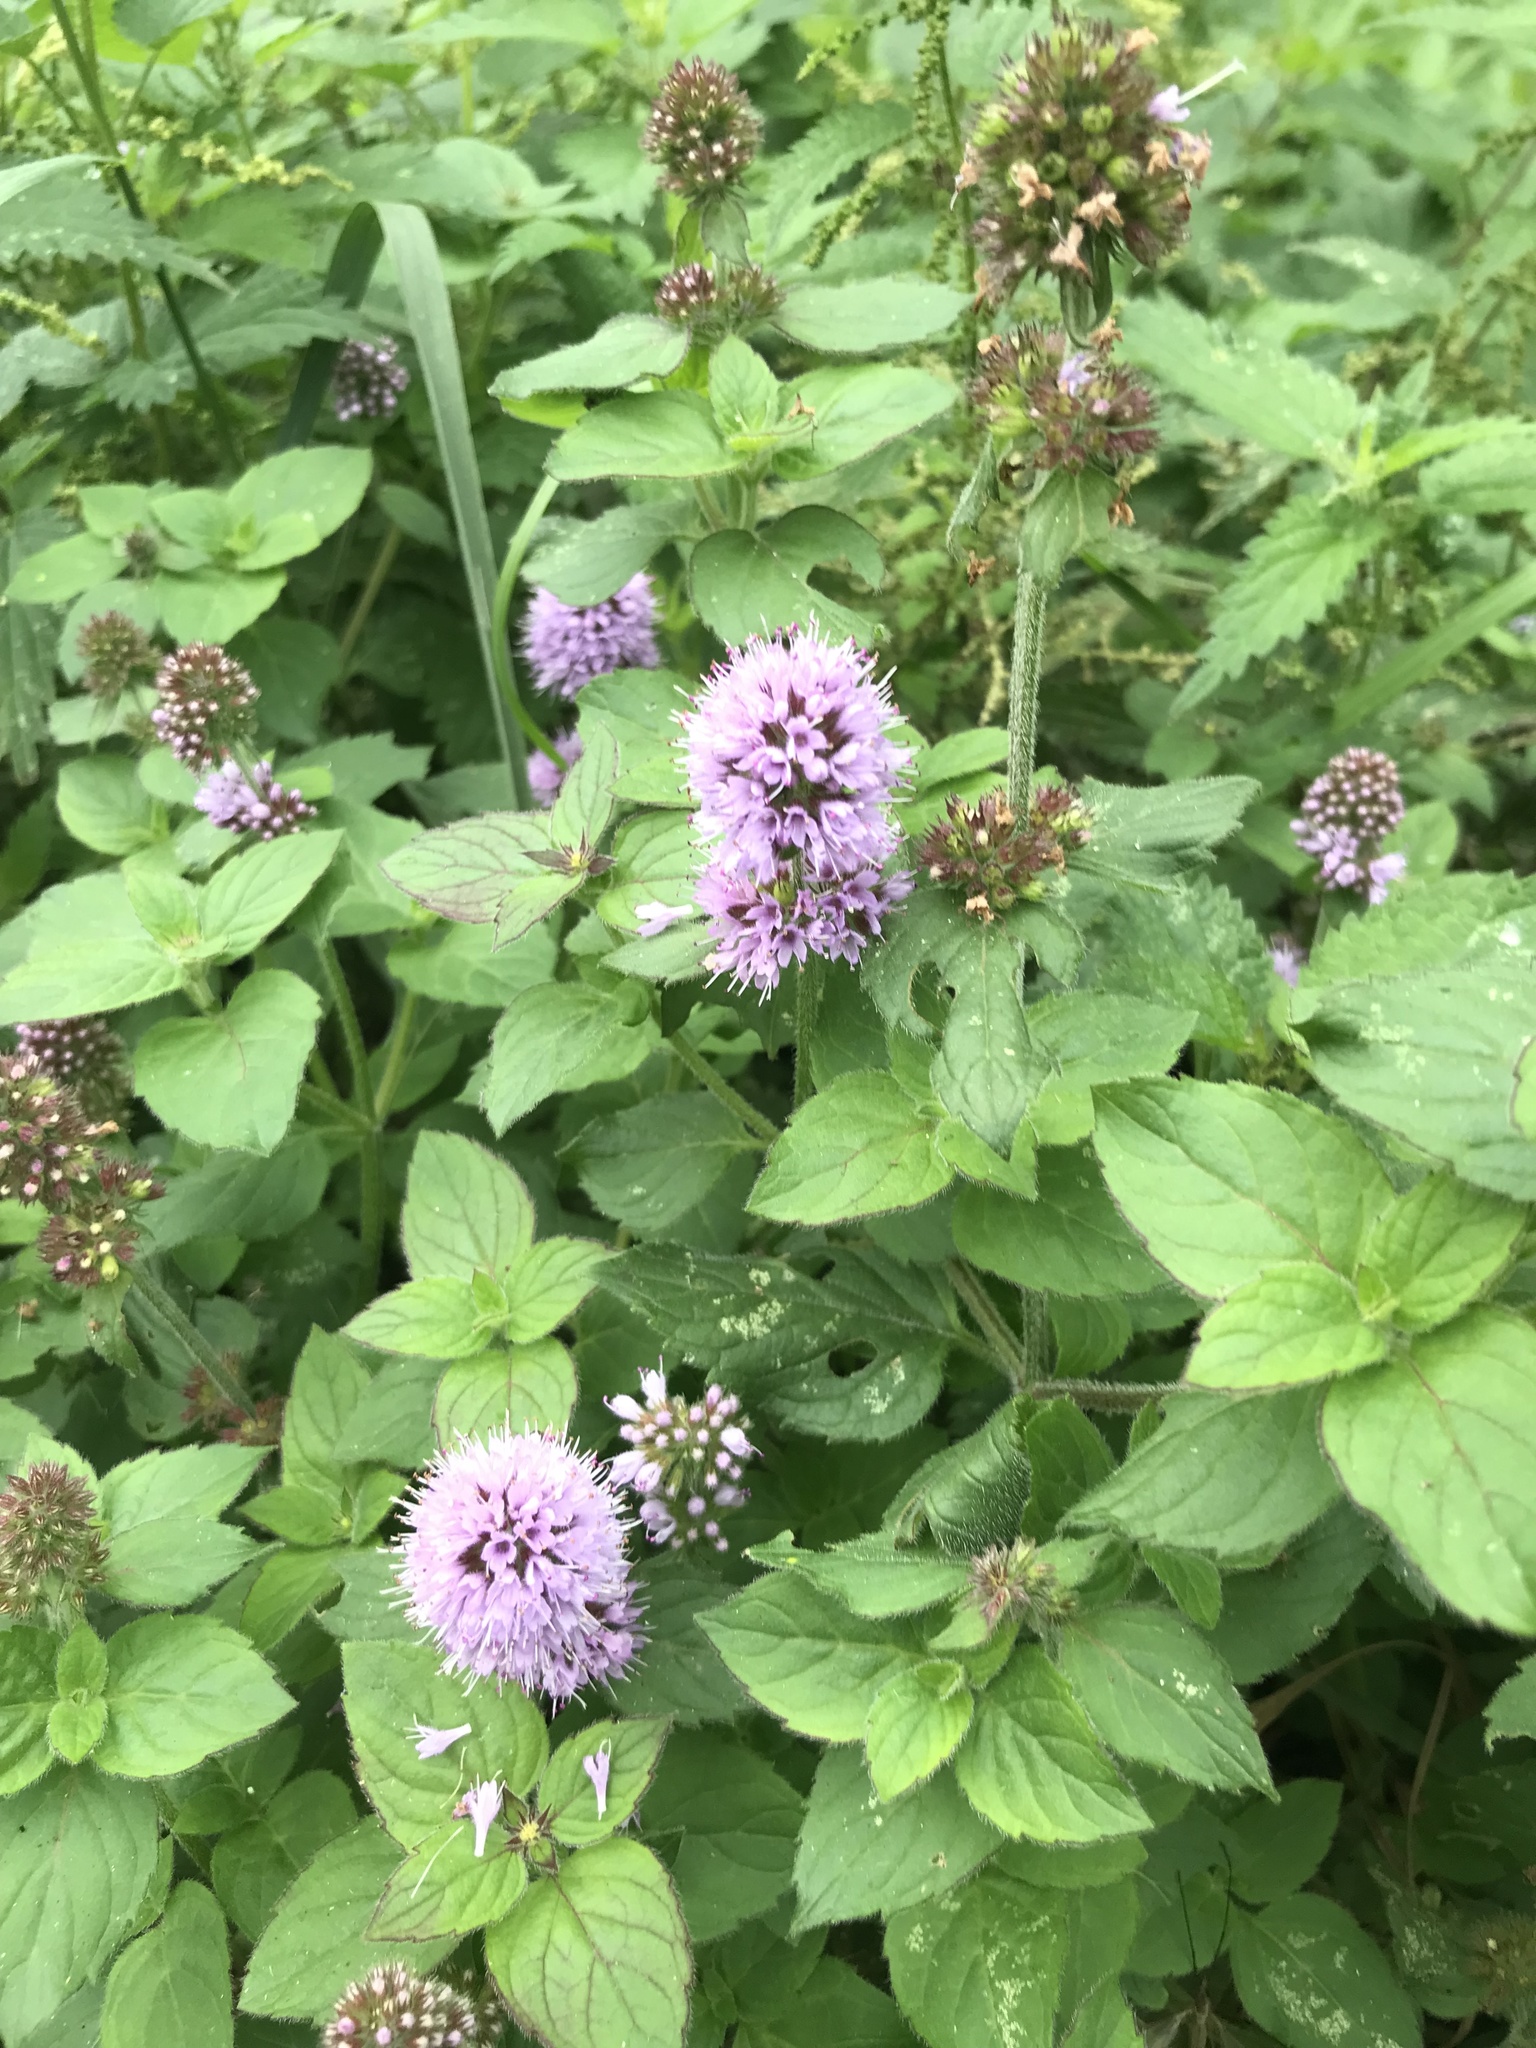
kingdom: Plantae
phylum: Tracheophyta
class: Magnoliopsida
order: Lamiales
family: Lamiaceae
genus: Mentha
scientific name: Mentha aquatica
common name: Water mint
